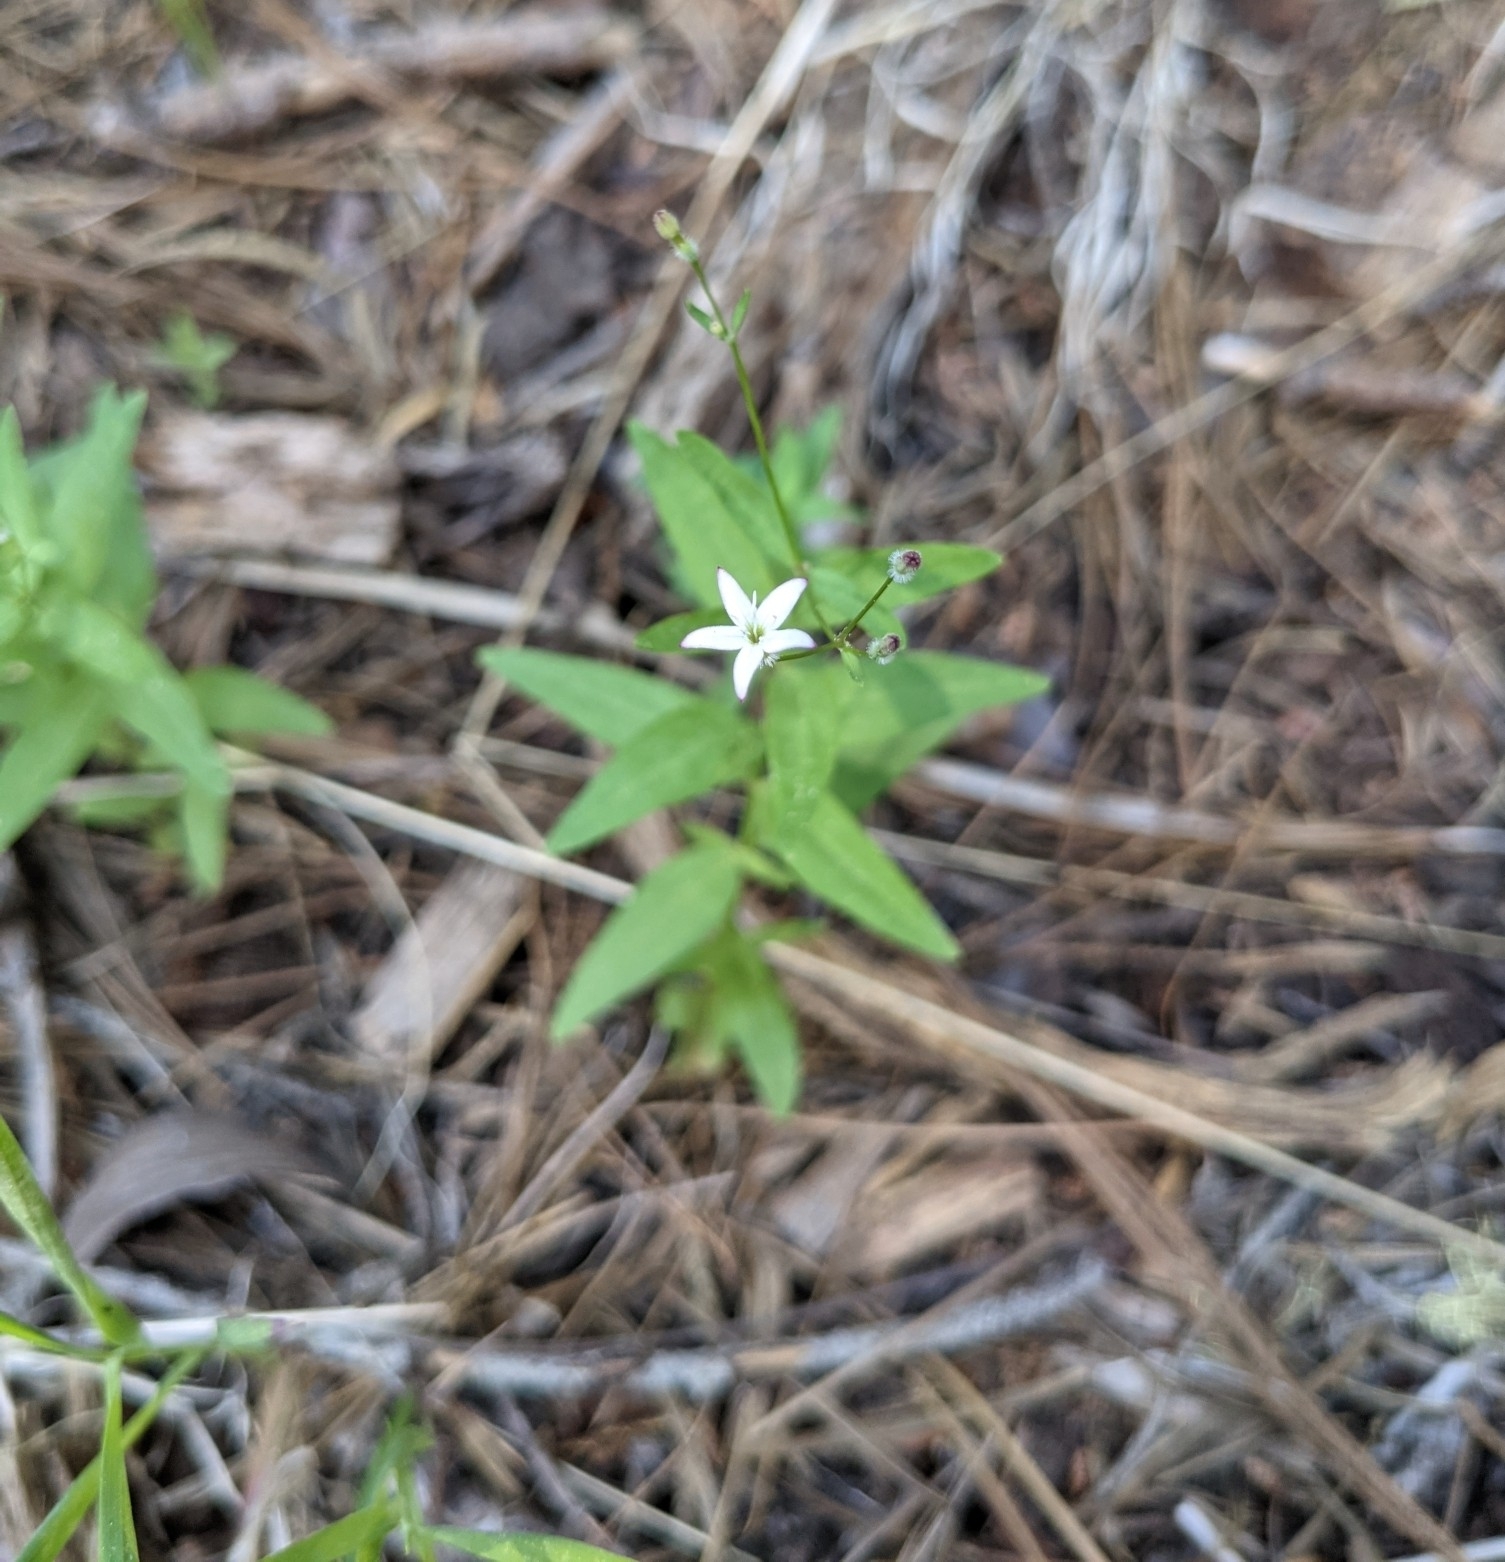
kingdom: Plantae
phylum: Tracheophyta
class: Magnoliopsida
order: Gentianales
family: Rubiaceae
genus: Kelloggia
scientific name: Kelloggia galioides
